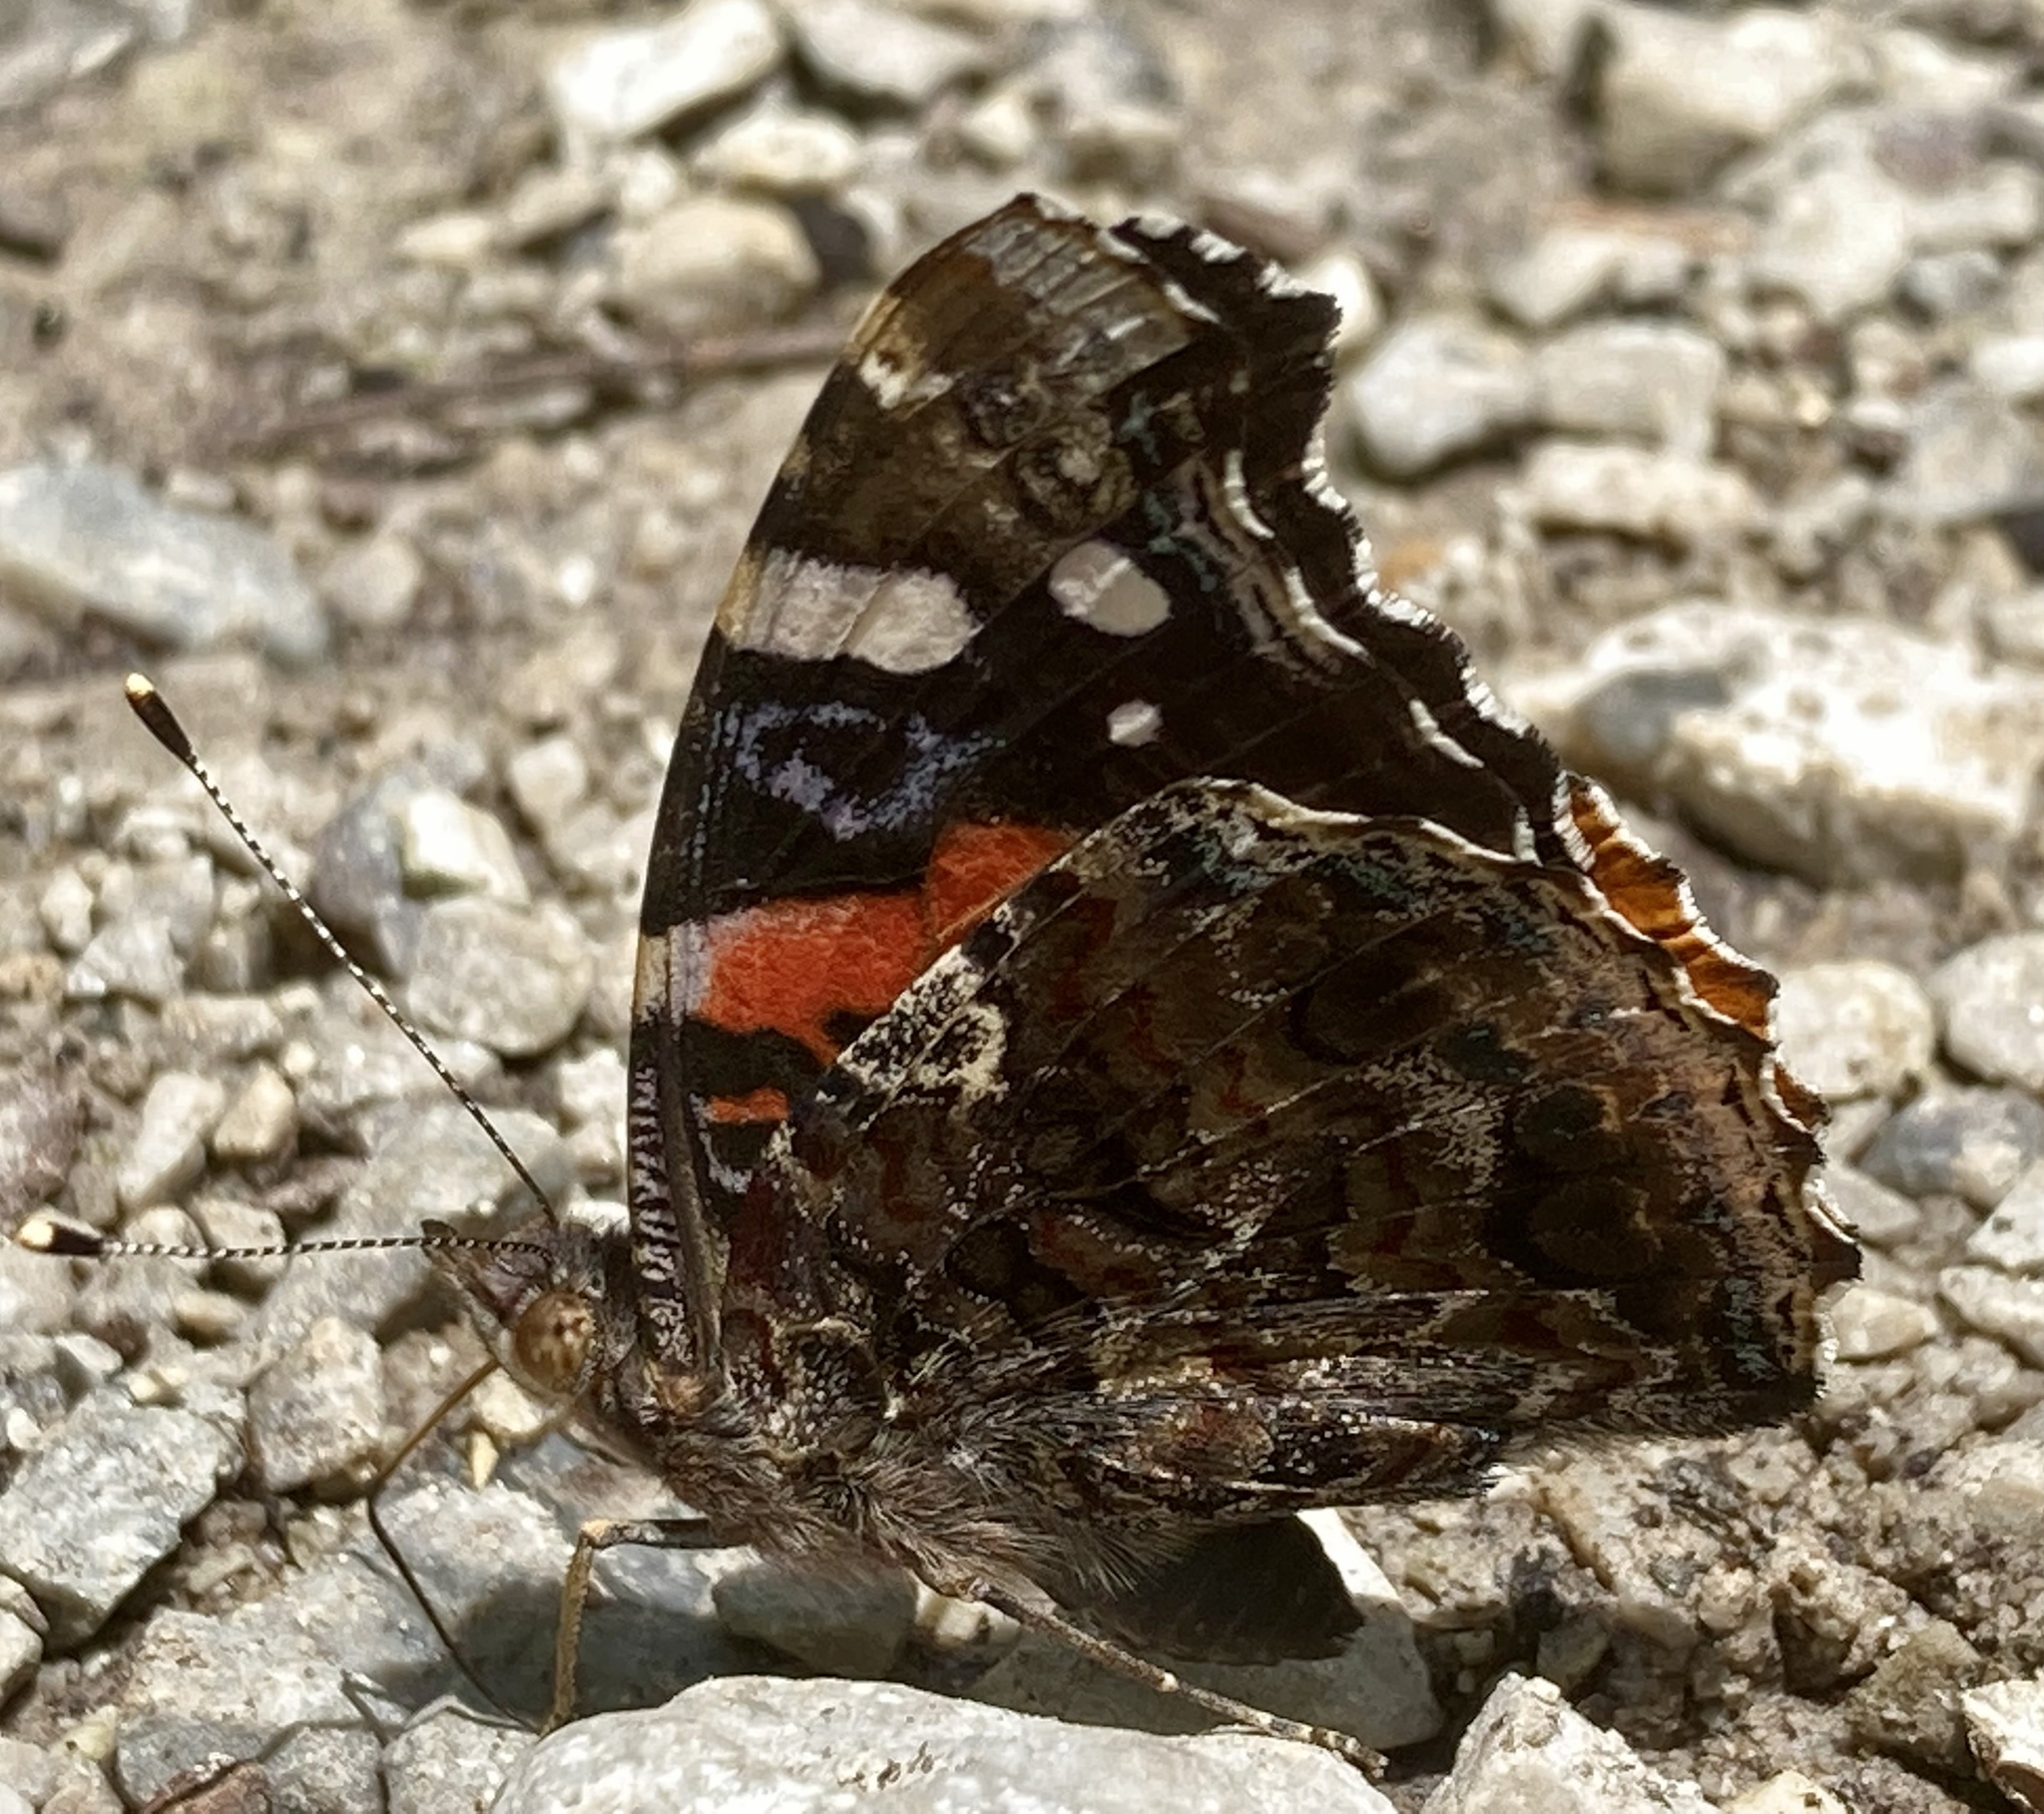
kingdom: Animalia
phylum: Arthropoda
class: Insecta
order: Lepidoptera
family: Nymphalidae
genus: Vanessa
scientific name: Vanessa atalanta
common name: Red admiral
